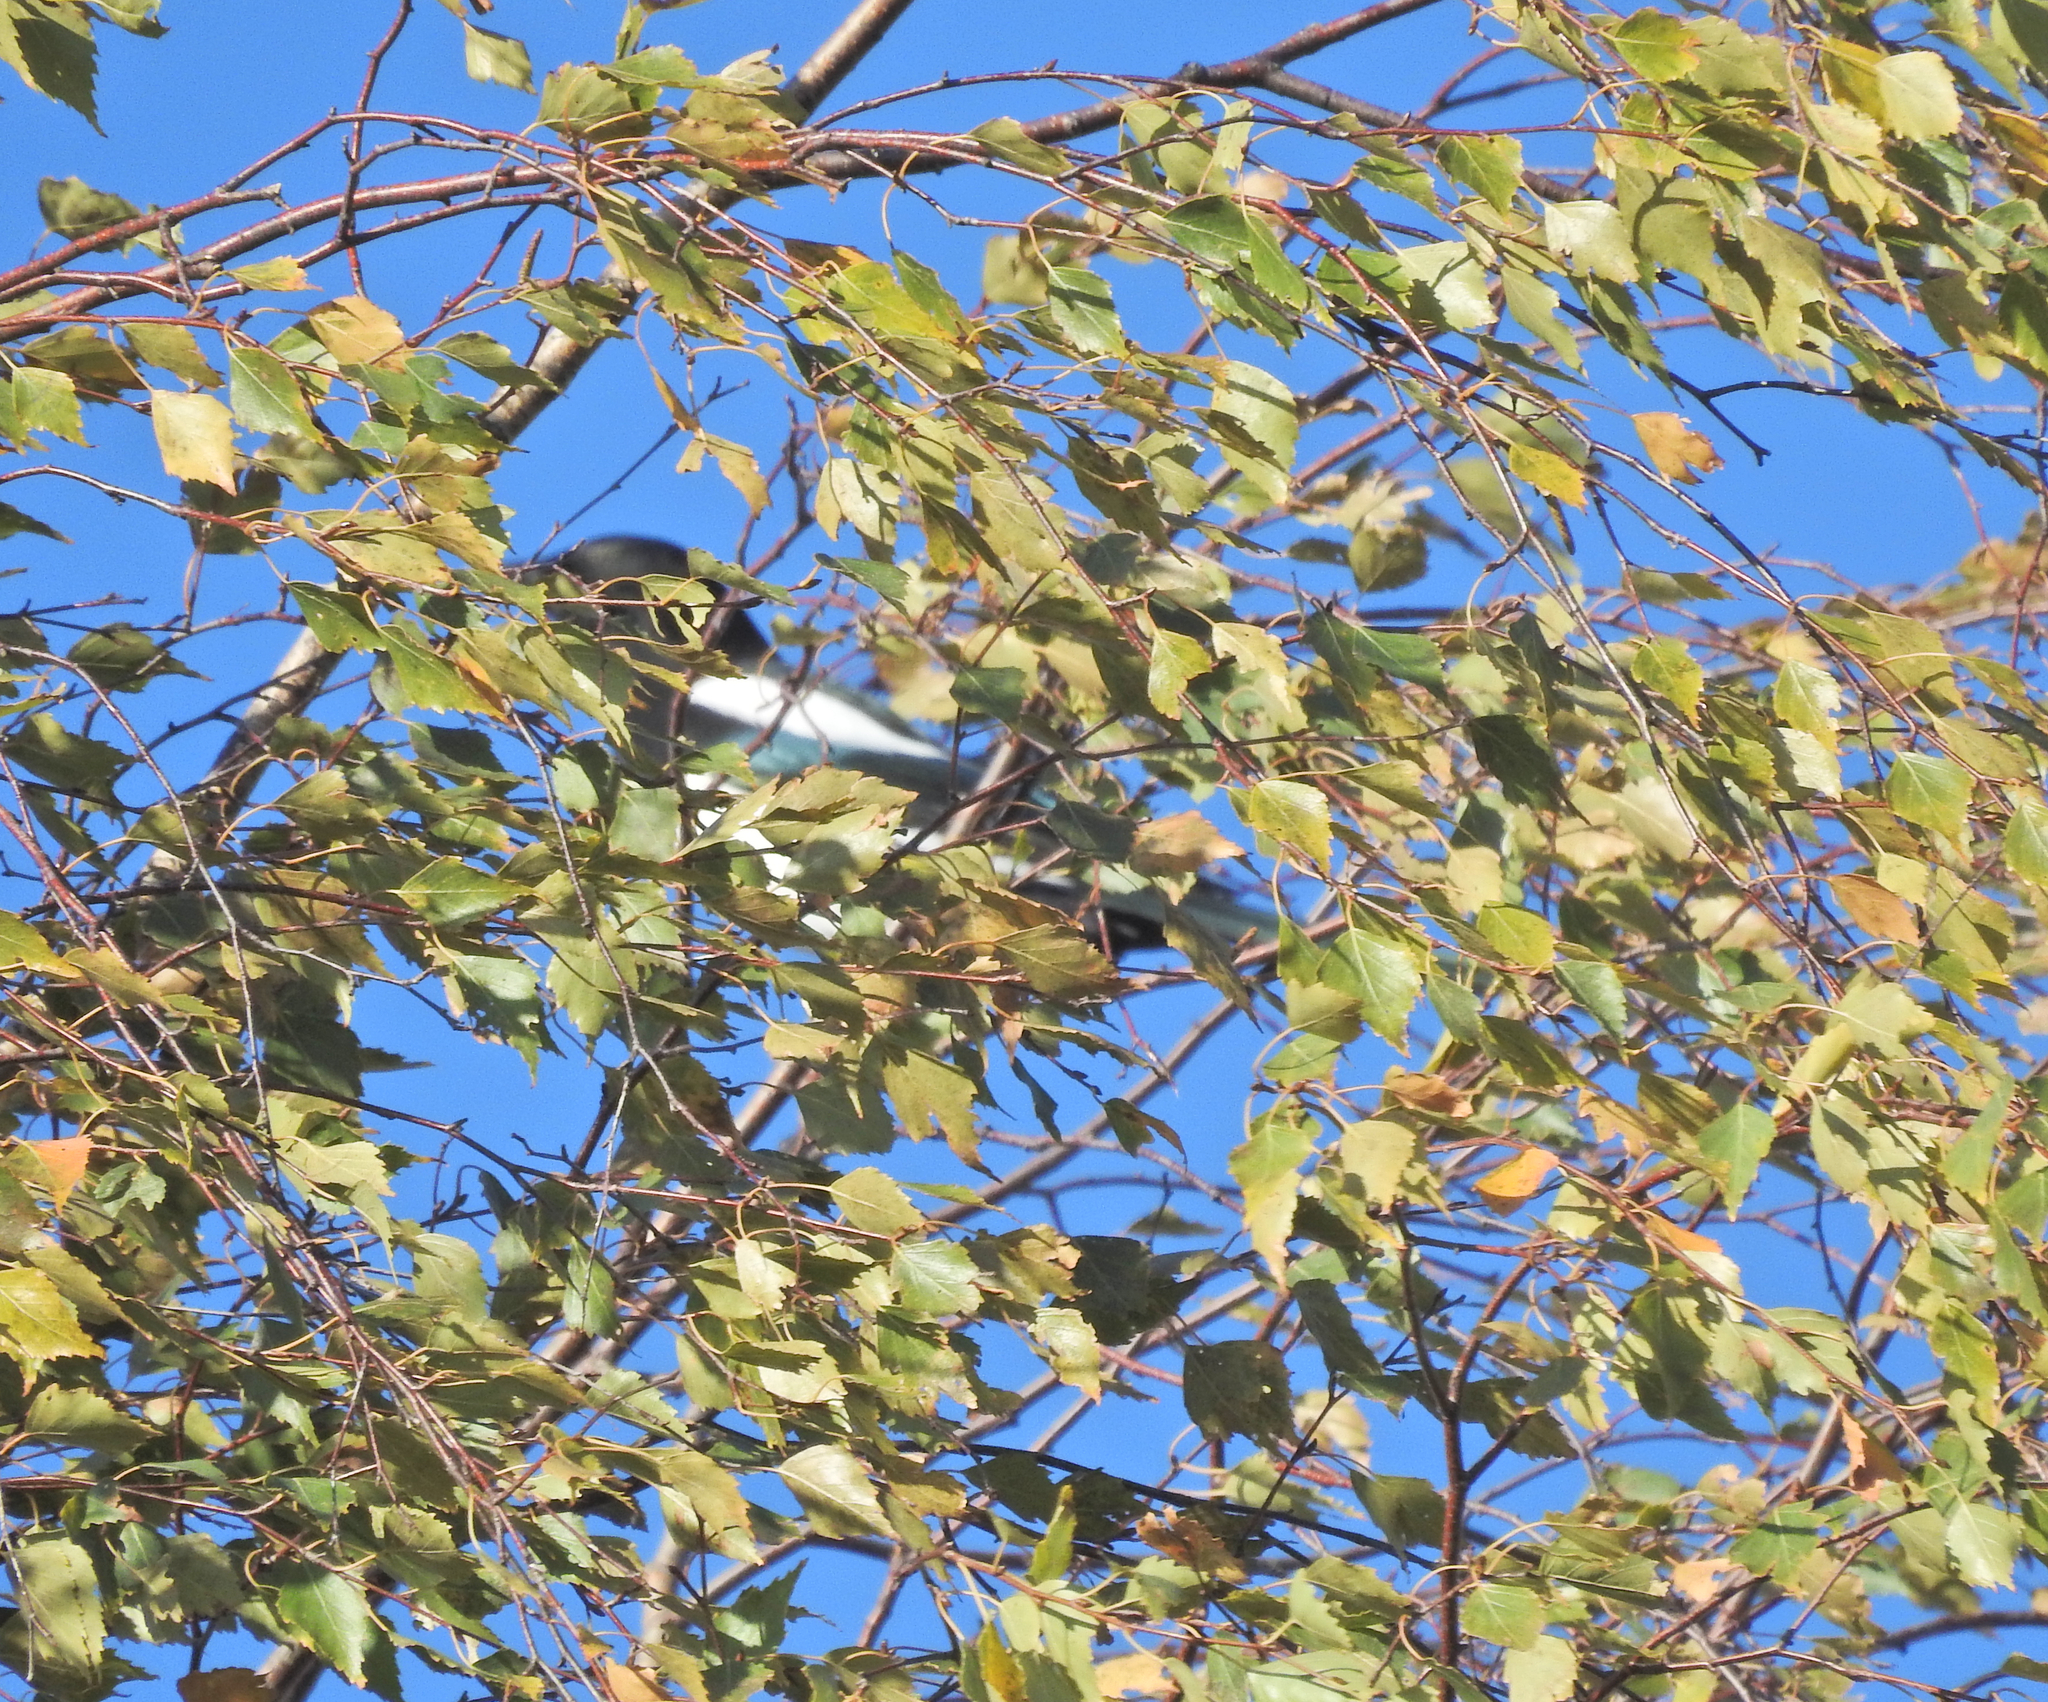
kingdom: Animalia
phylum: Chordata
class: Aves
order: Passeriformes
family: Corvidae
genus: Pica
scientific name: Pica pica
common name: Eurasian magpie
